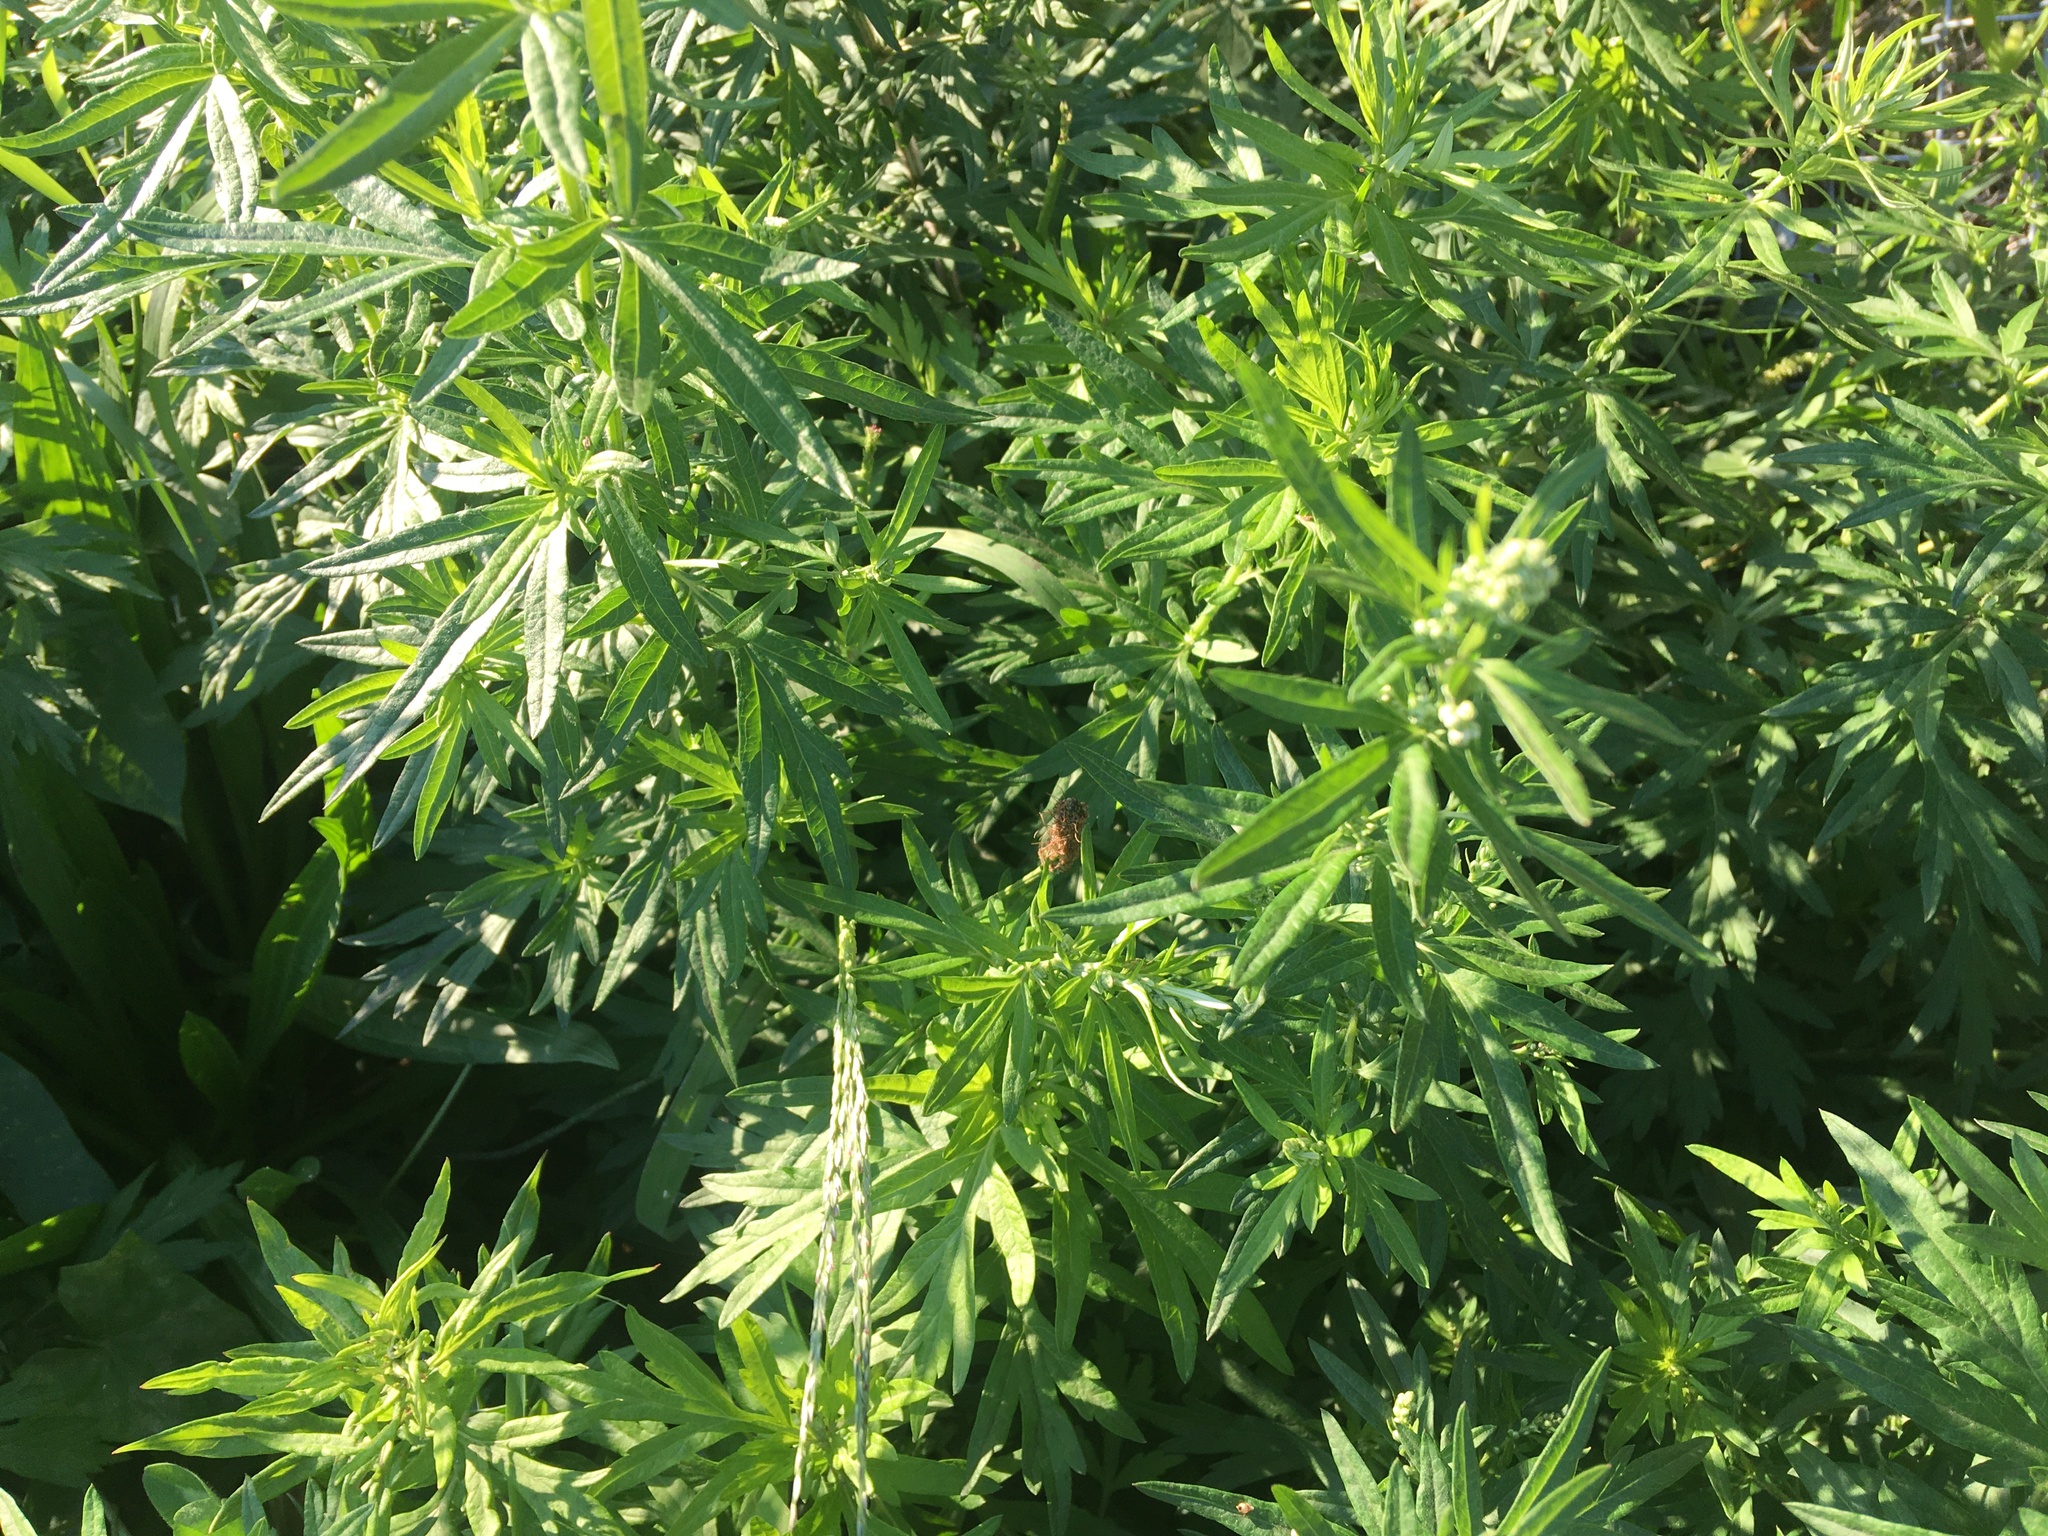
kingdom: Plantae
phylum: Tracheophyta
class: Magnoliopsida
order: Asterales
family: Asteraceae
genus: Artemisia
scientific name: Artemisia vulgaris
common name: Mugwort
